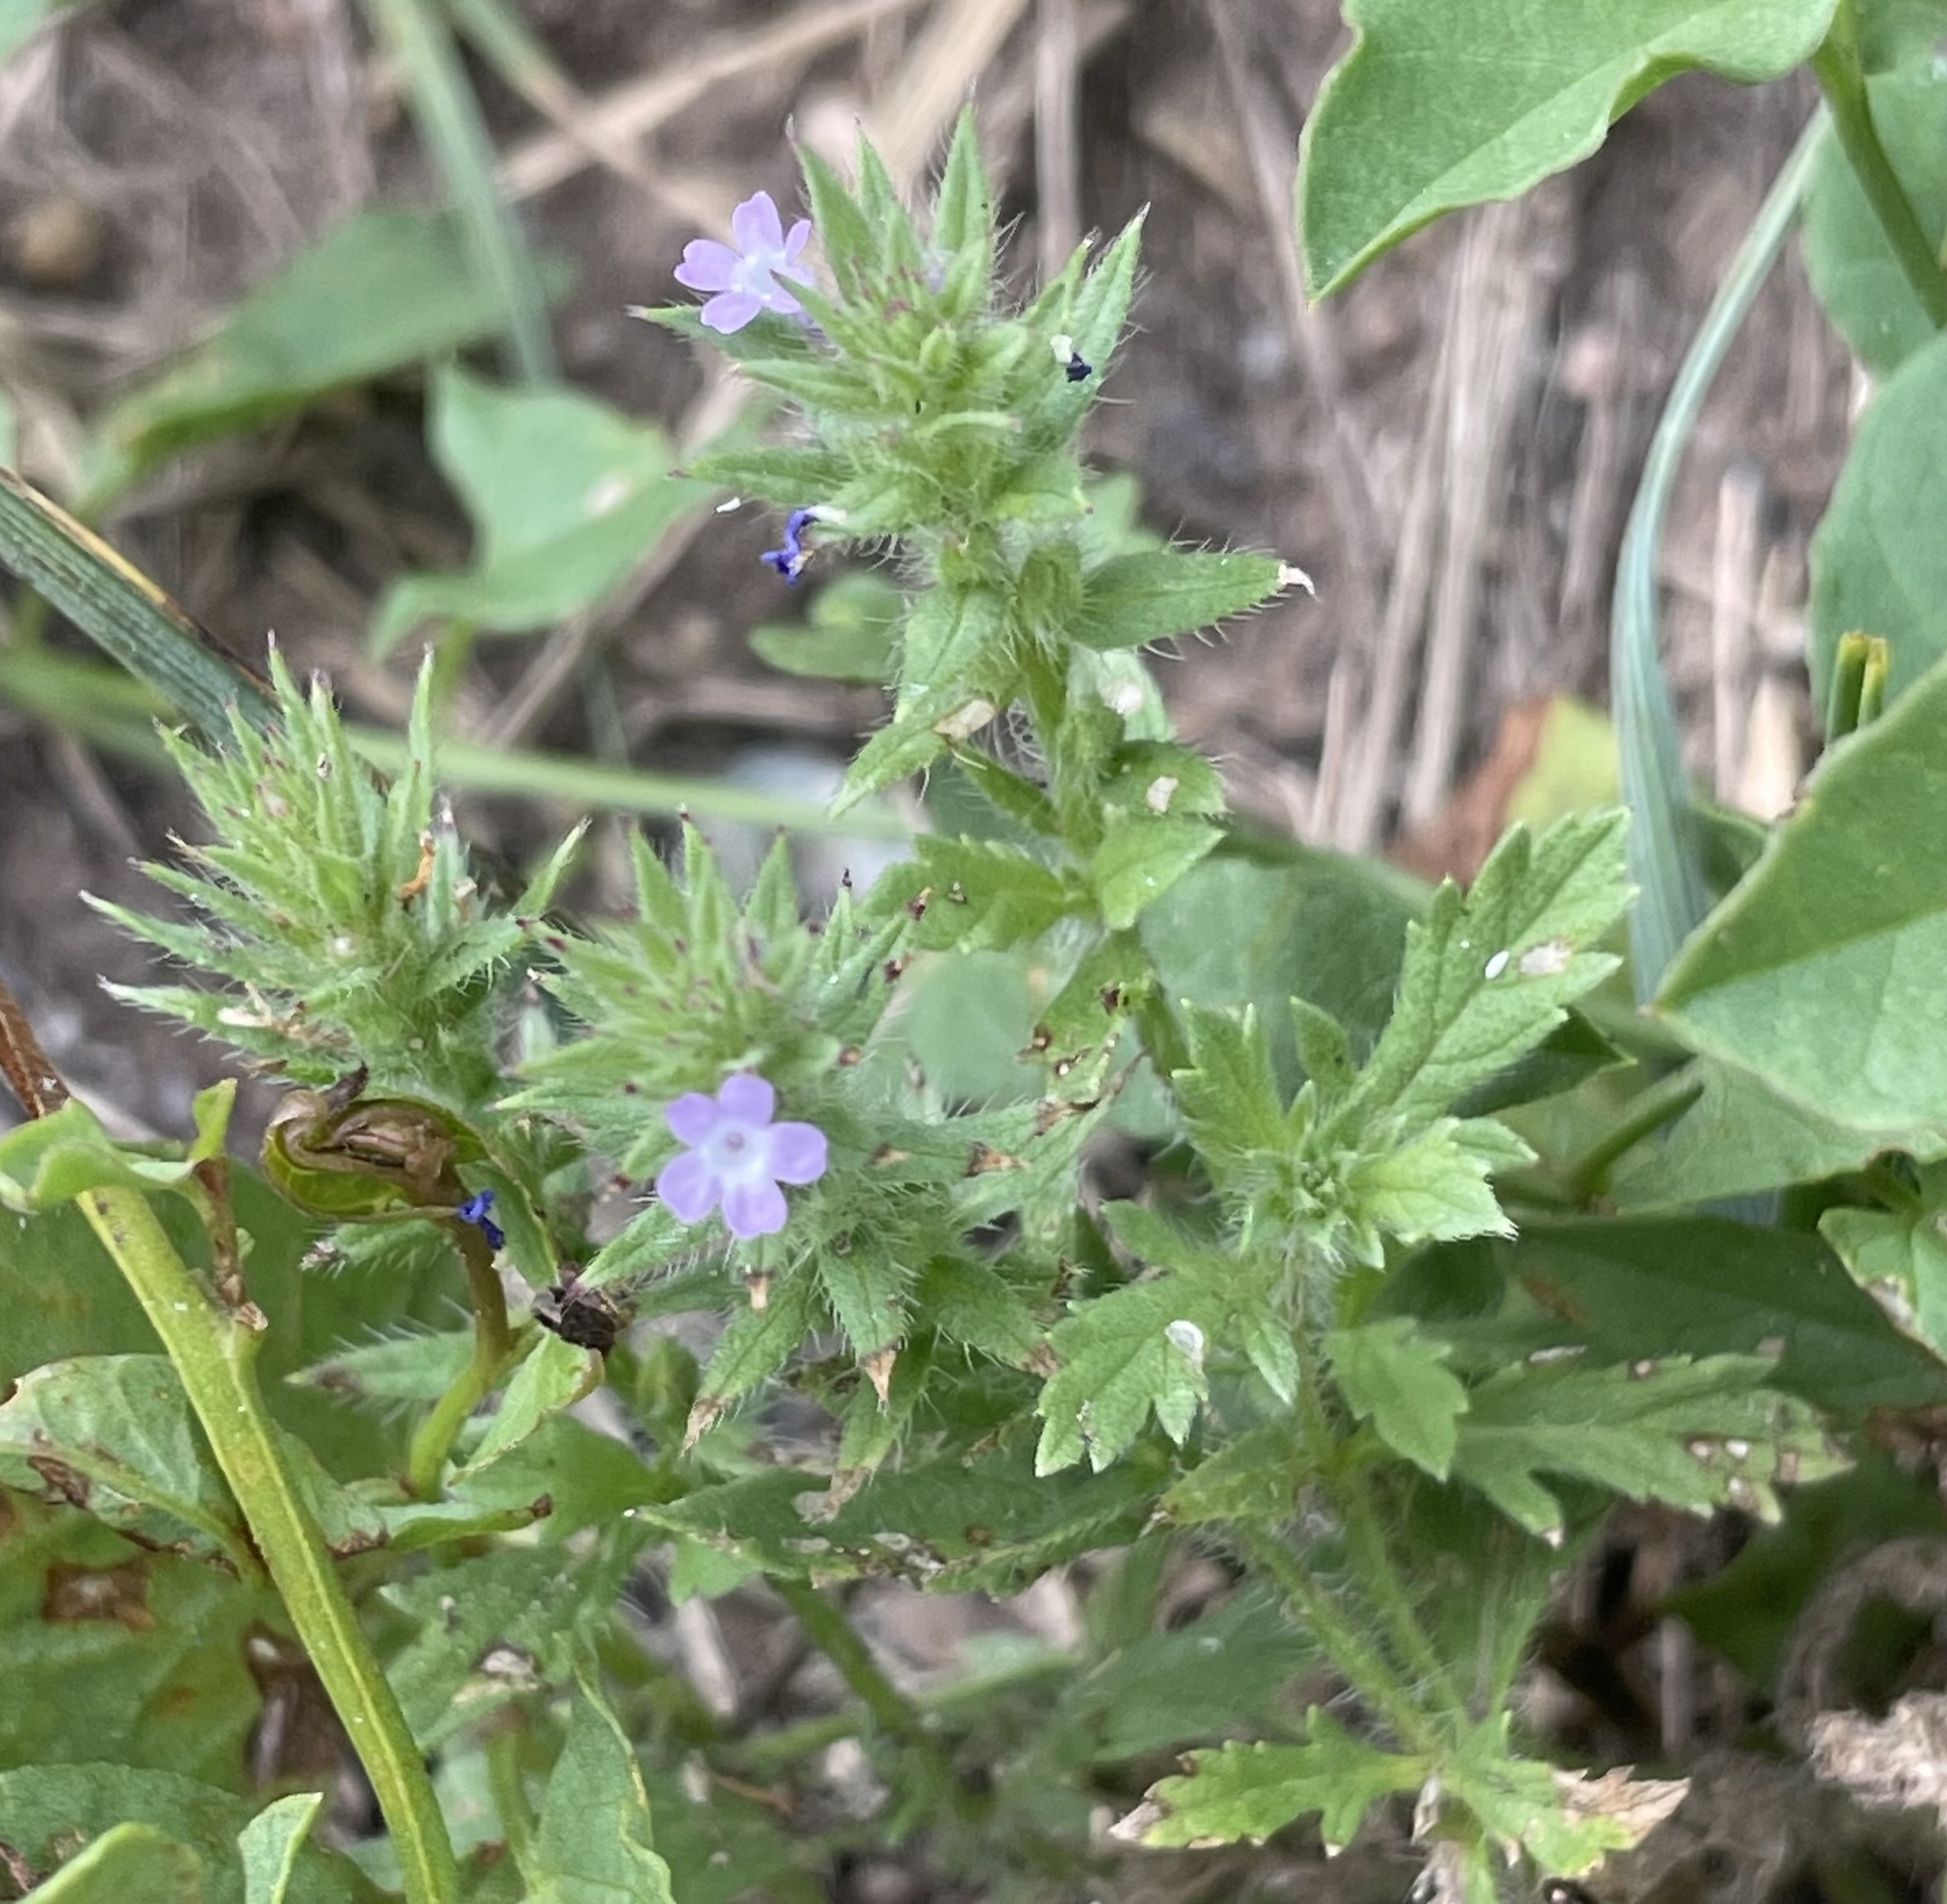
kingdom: Plantae
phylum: Tracheophyta
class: Magnoliopsida
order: Lamiales
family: Verbenaceae
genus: Verbena
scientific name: Verbena bracteata
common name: Bracted vervain
